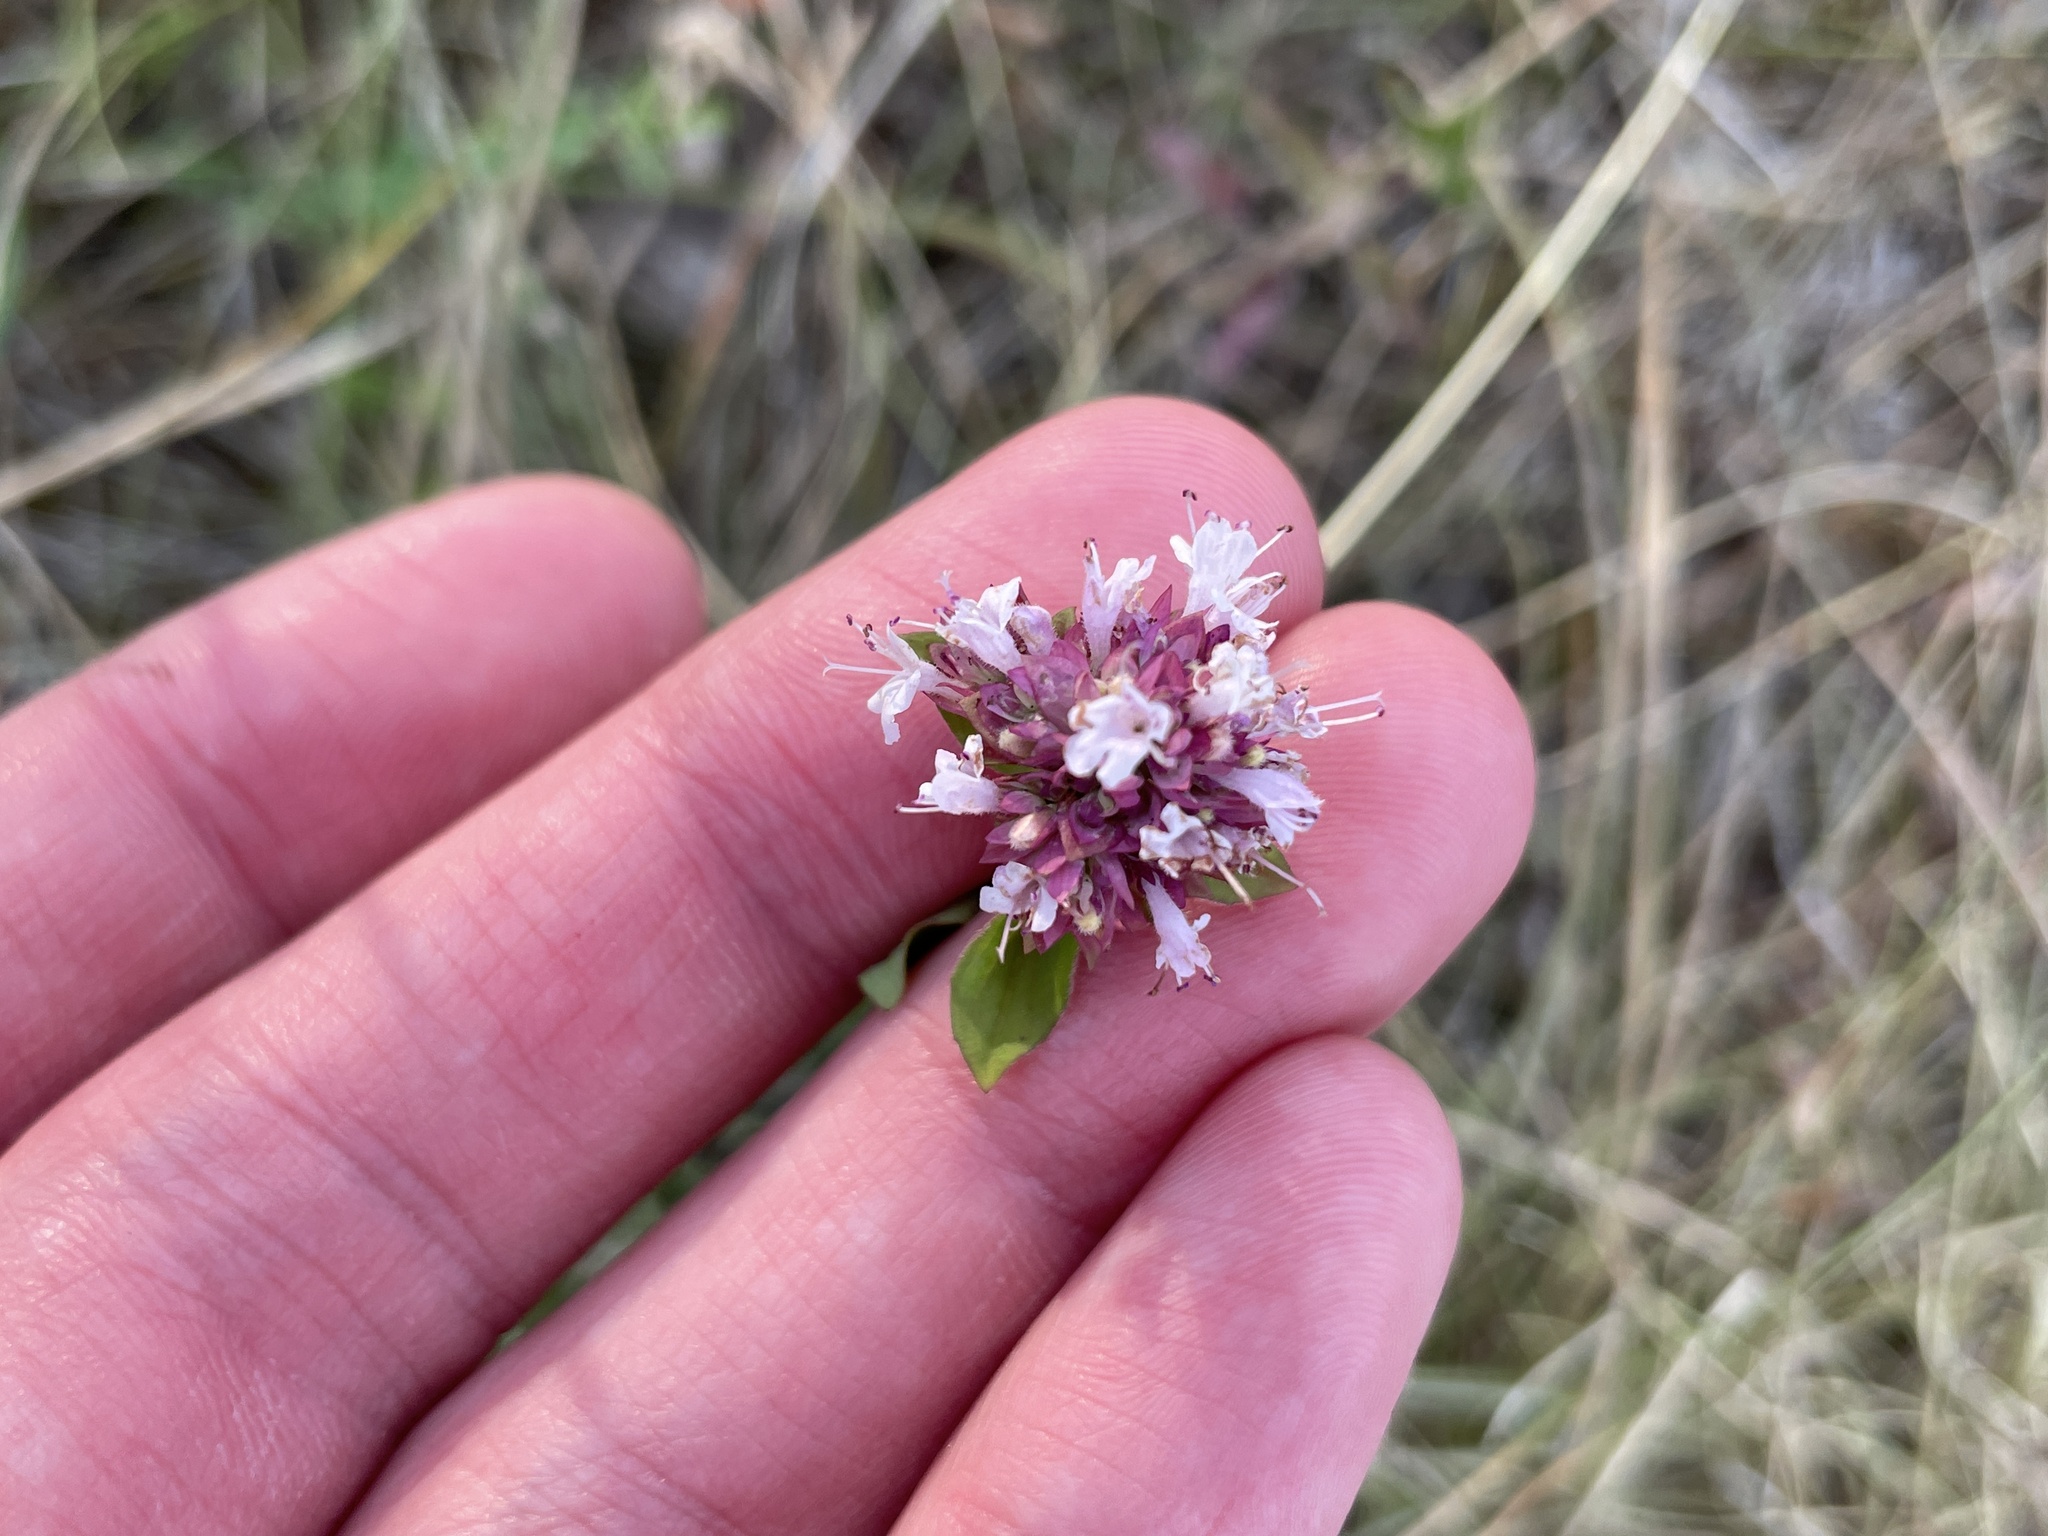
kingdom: Plantae
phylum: Tracheophyta
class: Magnoliopsida
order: Lamiales
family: Lamiaceae
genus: Origanum
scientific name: Origanum vulgare
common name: Wild marjoram
